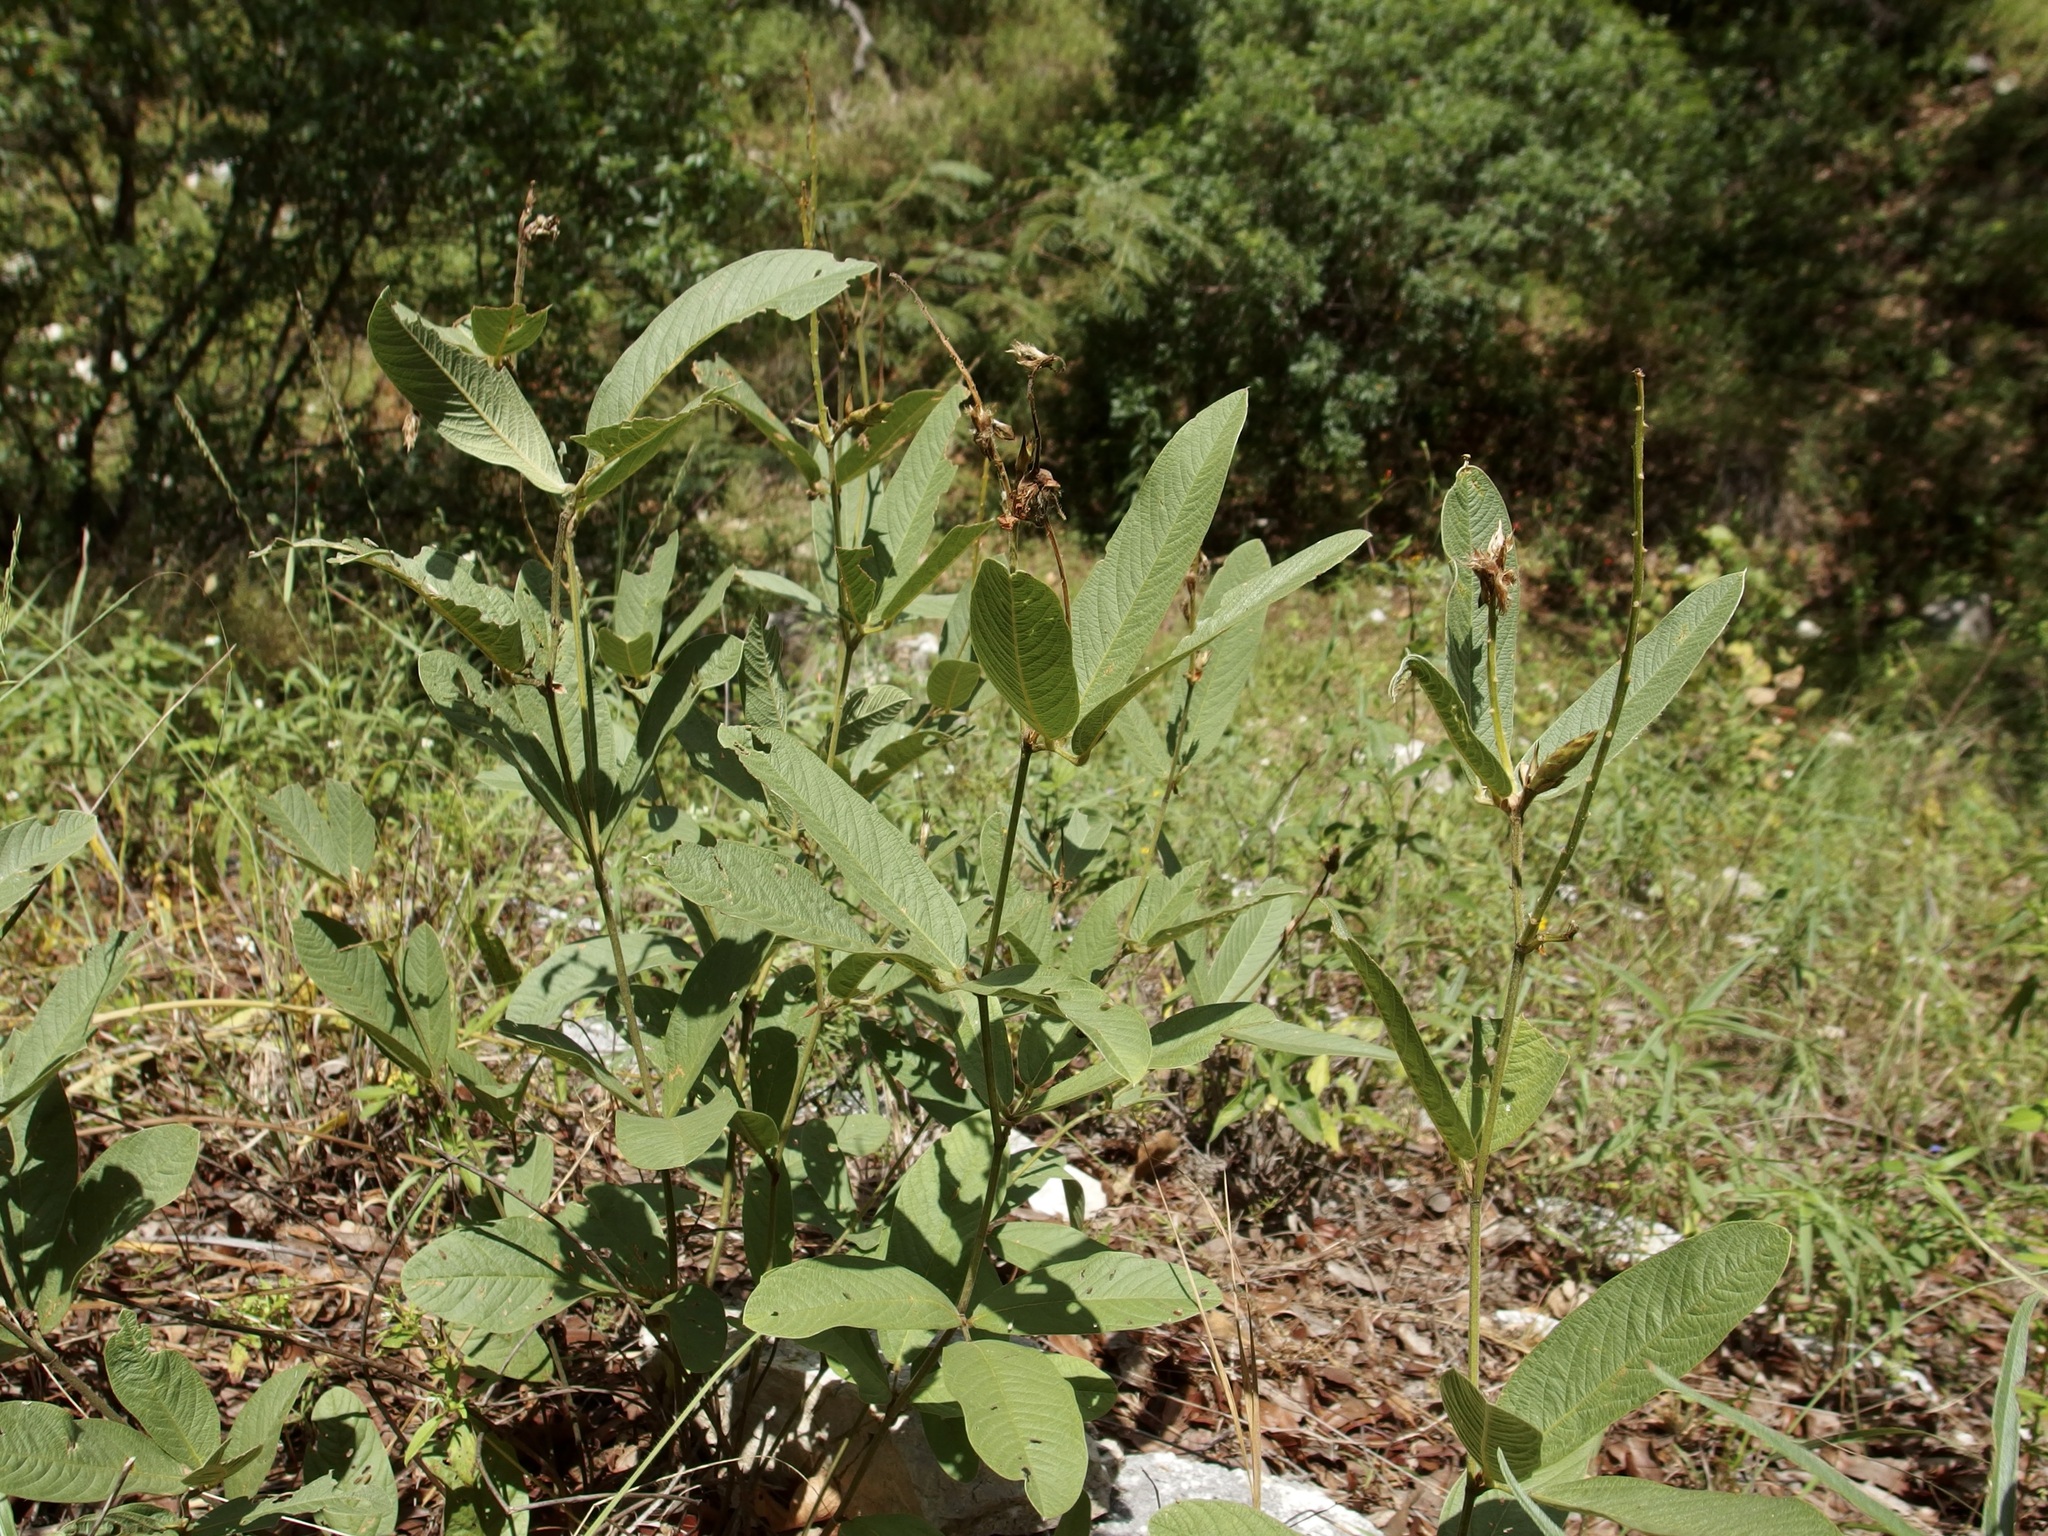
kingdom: Plantae
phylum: Tracheophyta
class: Magnoliopsida
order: Fabales
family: Fabaceae
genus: Eriosema
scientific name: Eriosema grandiflorum
